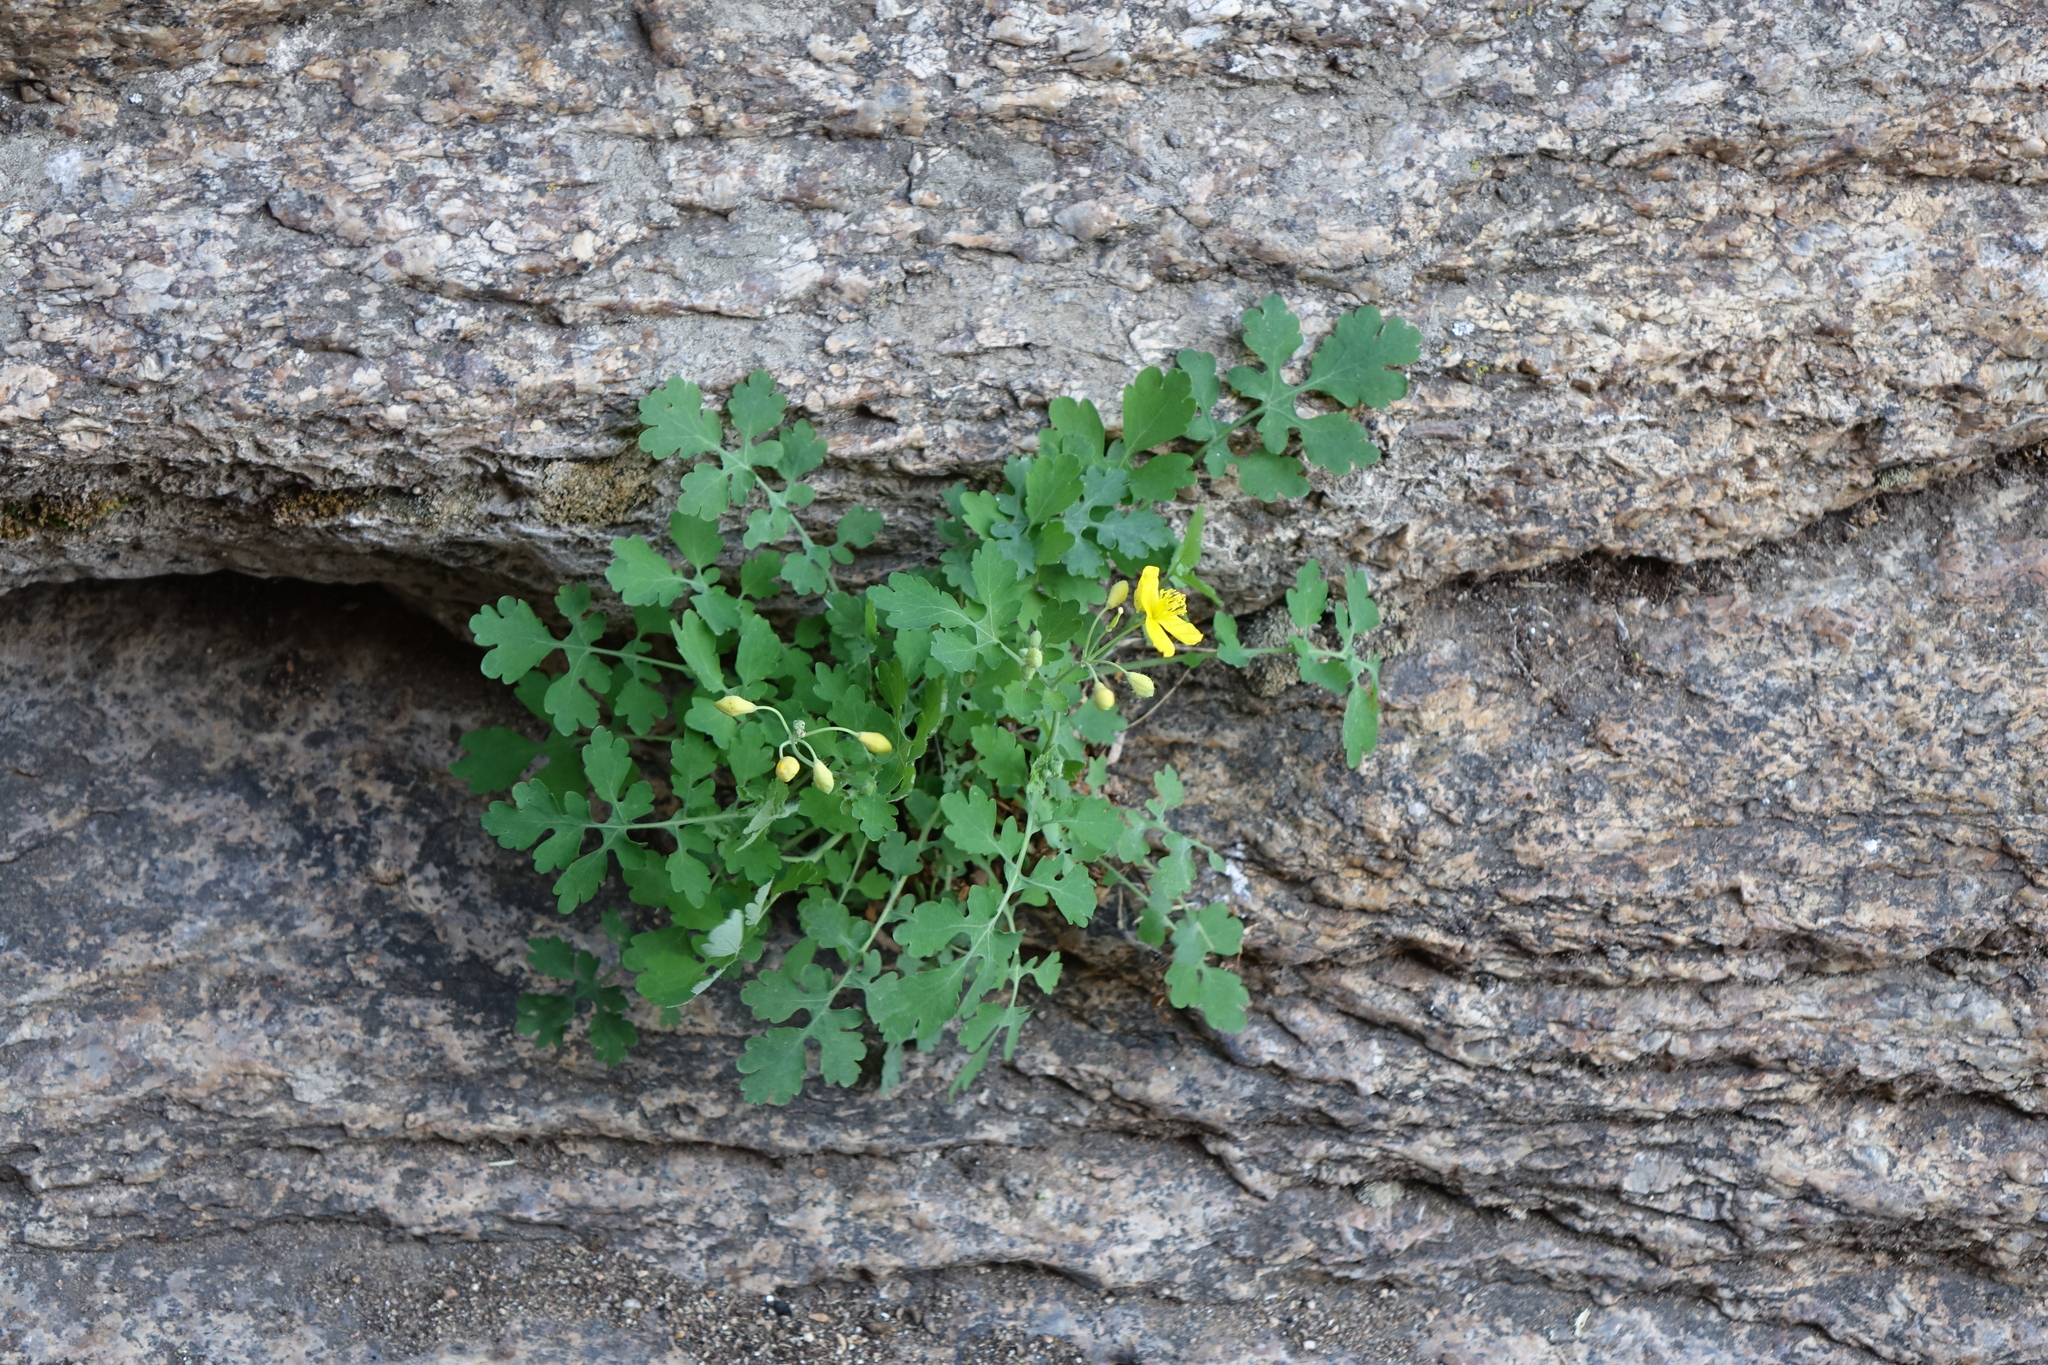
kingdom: Plantae
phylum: Tracheophyta
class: Magnoliopsida
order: Ranunculales
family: Papaveraceae
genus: Chelidonium
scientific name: Chelidonium majus
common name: Greater celandine
